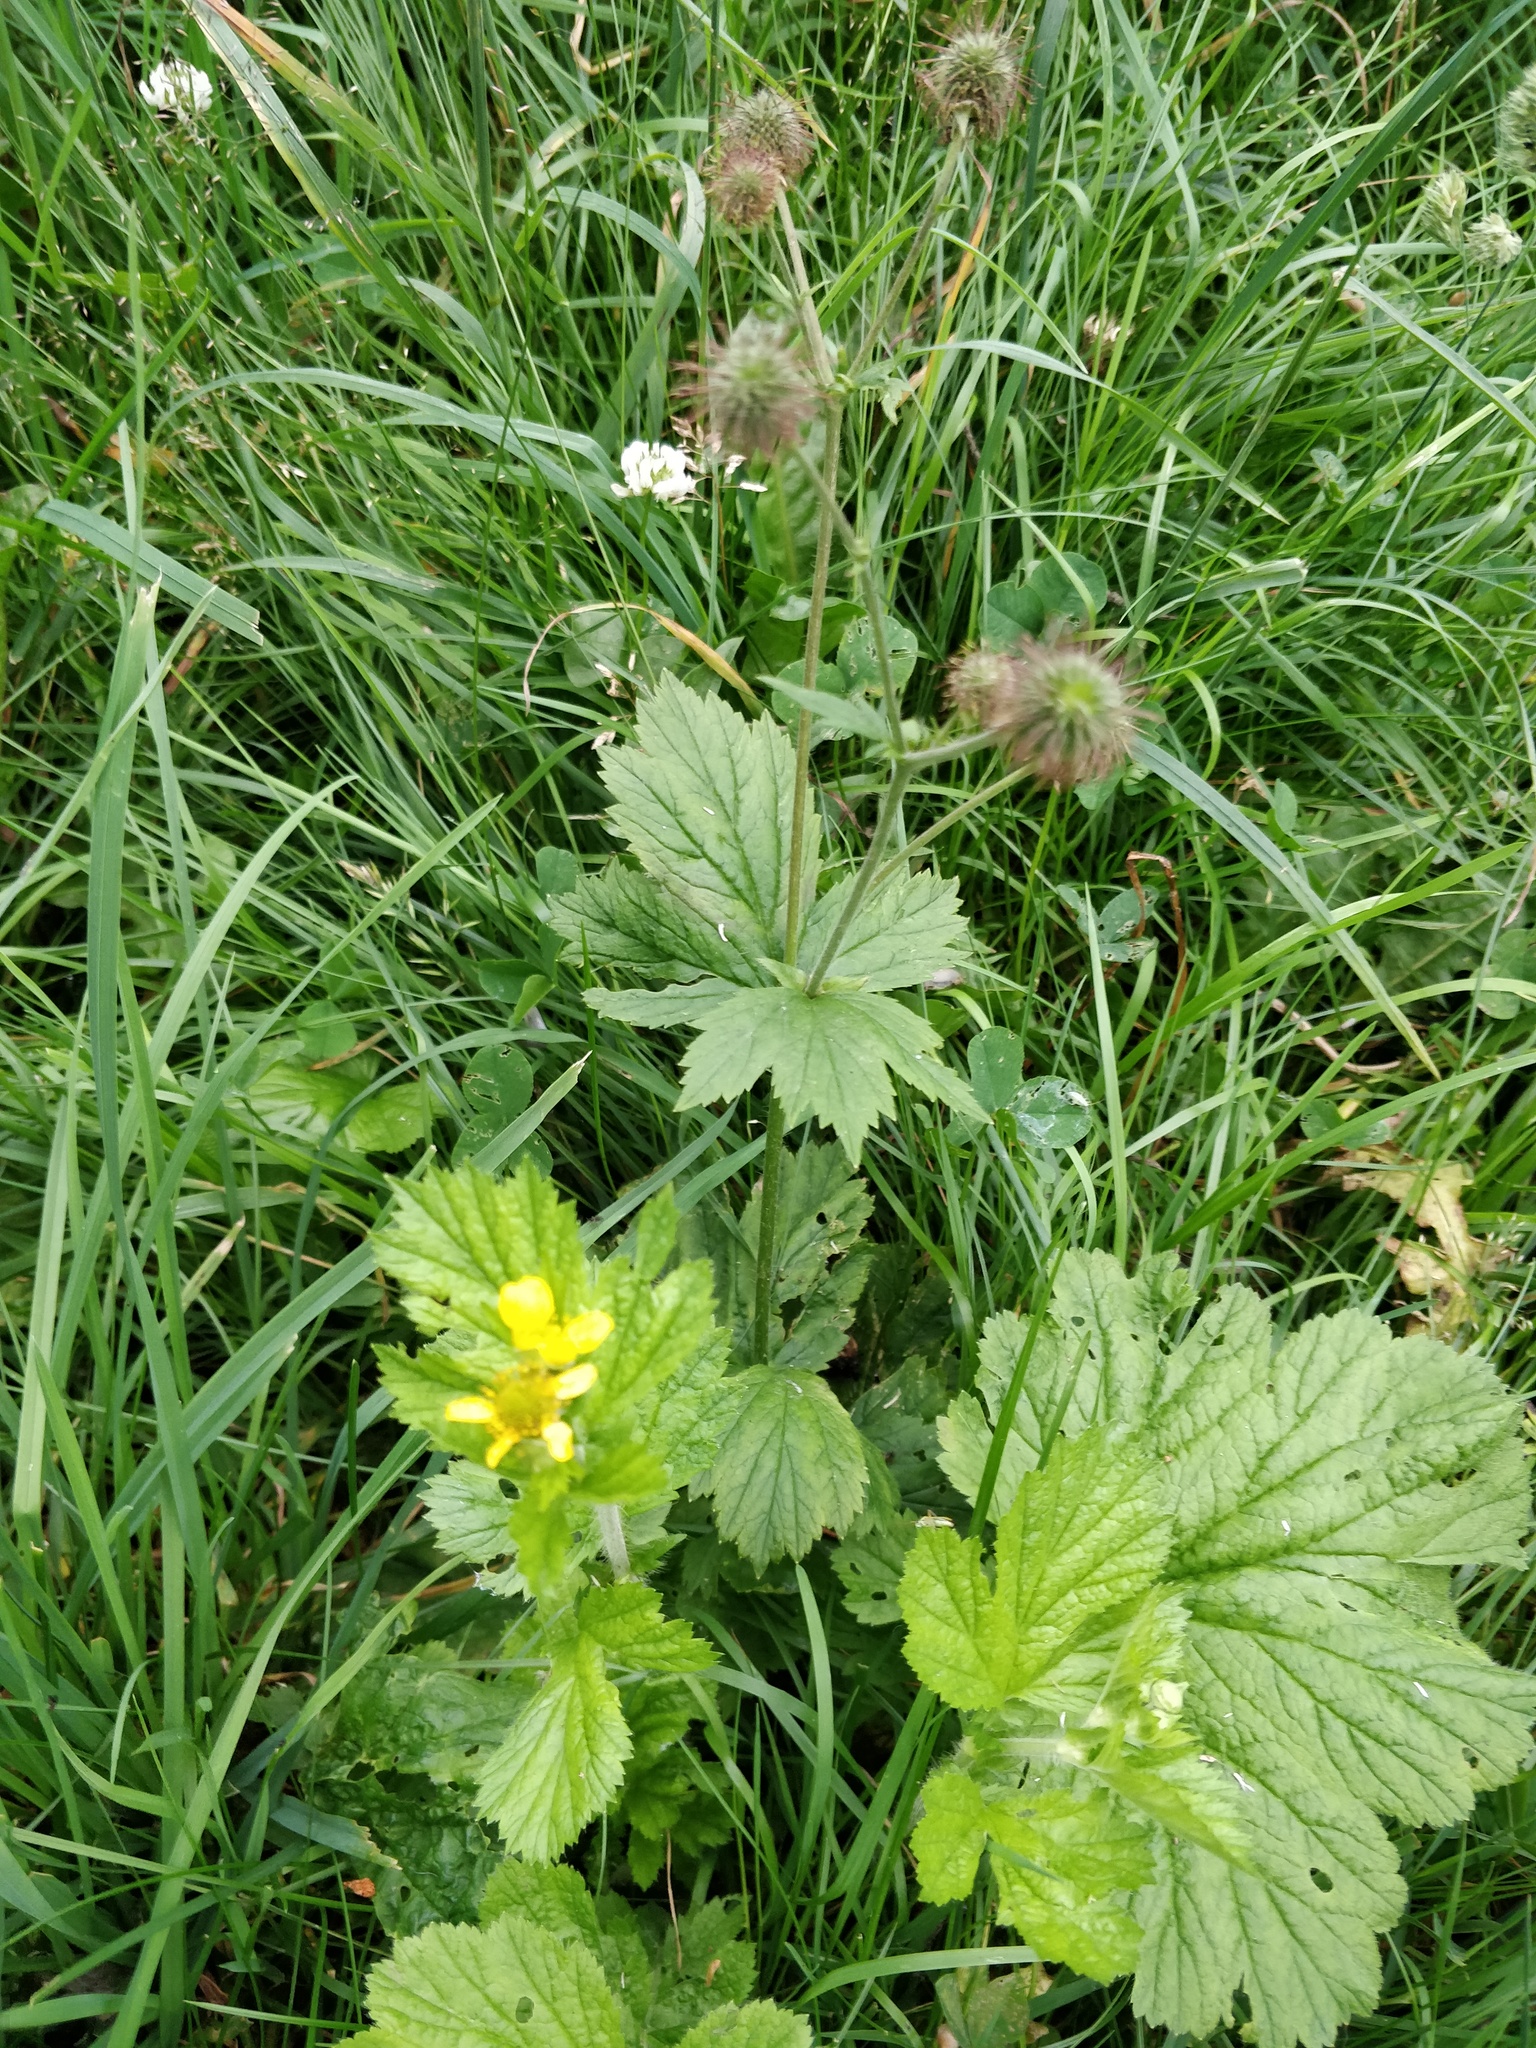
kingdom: Plantae
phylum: Tracheophyta
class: Magnoliopsida
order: Rosales
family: Rosaceae
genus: Geum
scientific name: Geum macrophyllum
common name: Large-leaved avens
